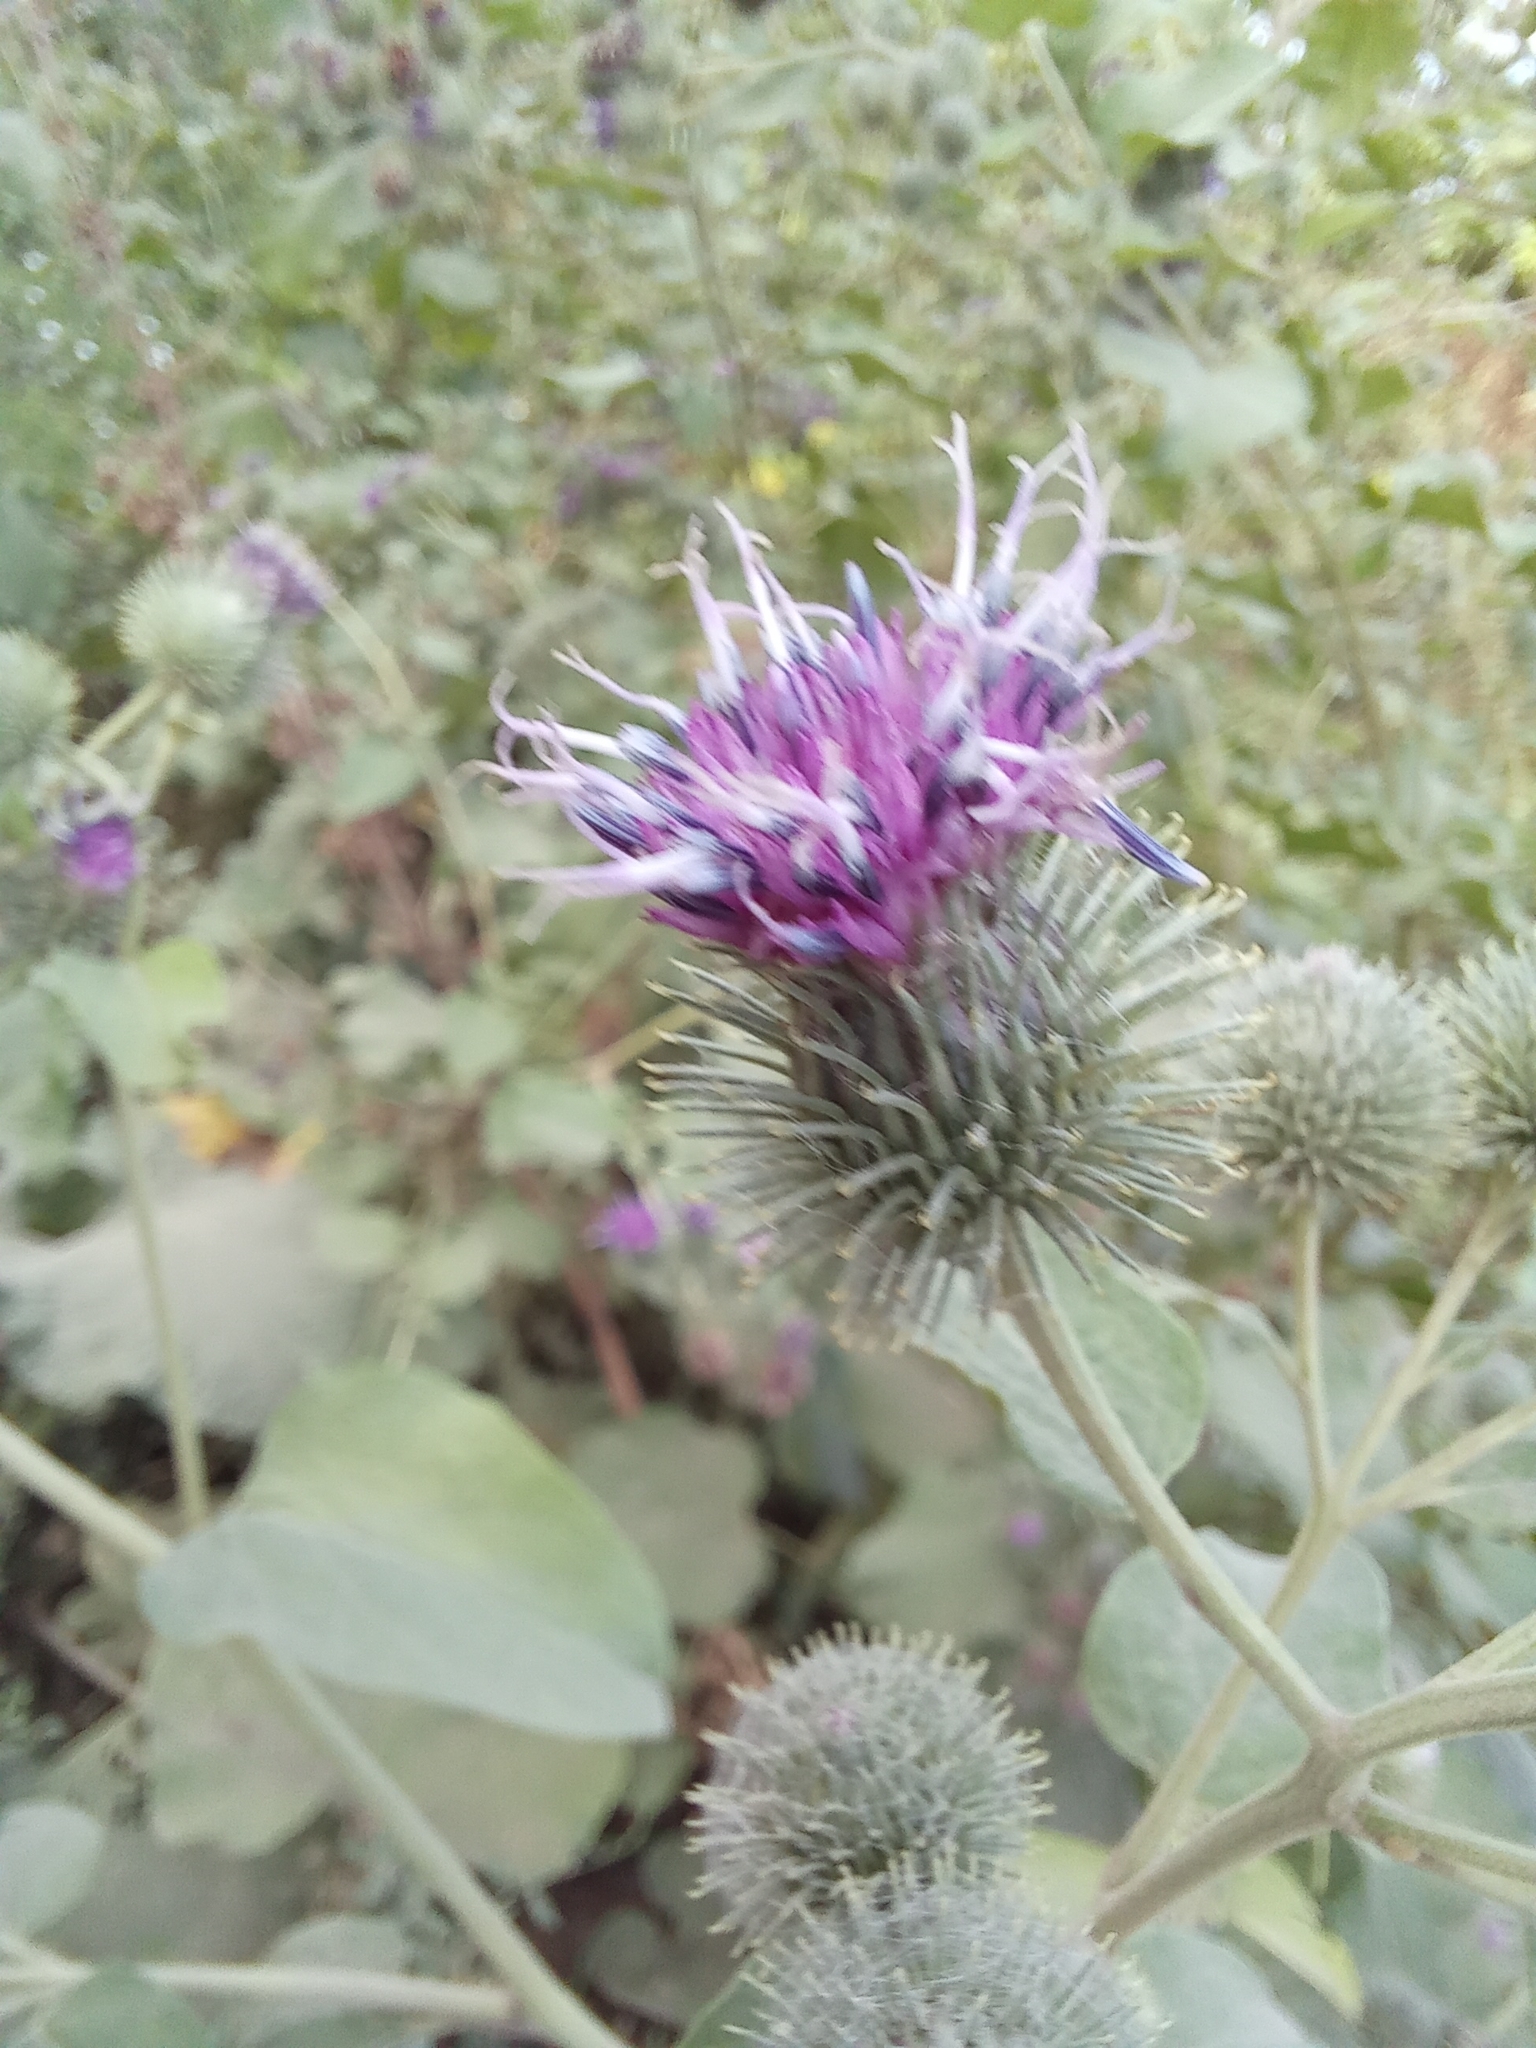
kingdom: Plantae
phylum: Tracheophyta
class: Magnoliopsida
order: Asterales
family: Asteraceae
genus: Arctium
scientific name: Arctium tomentosum
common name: Woolly burdock
